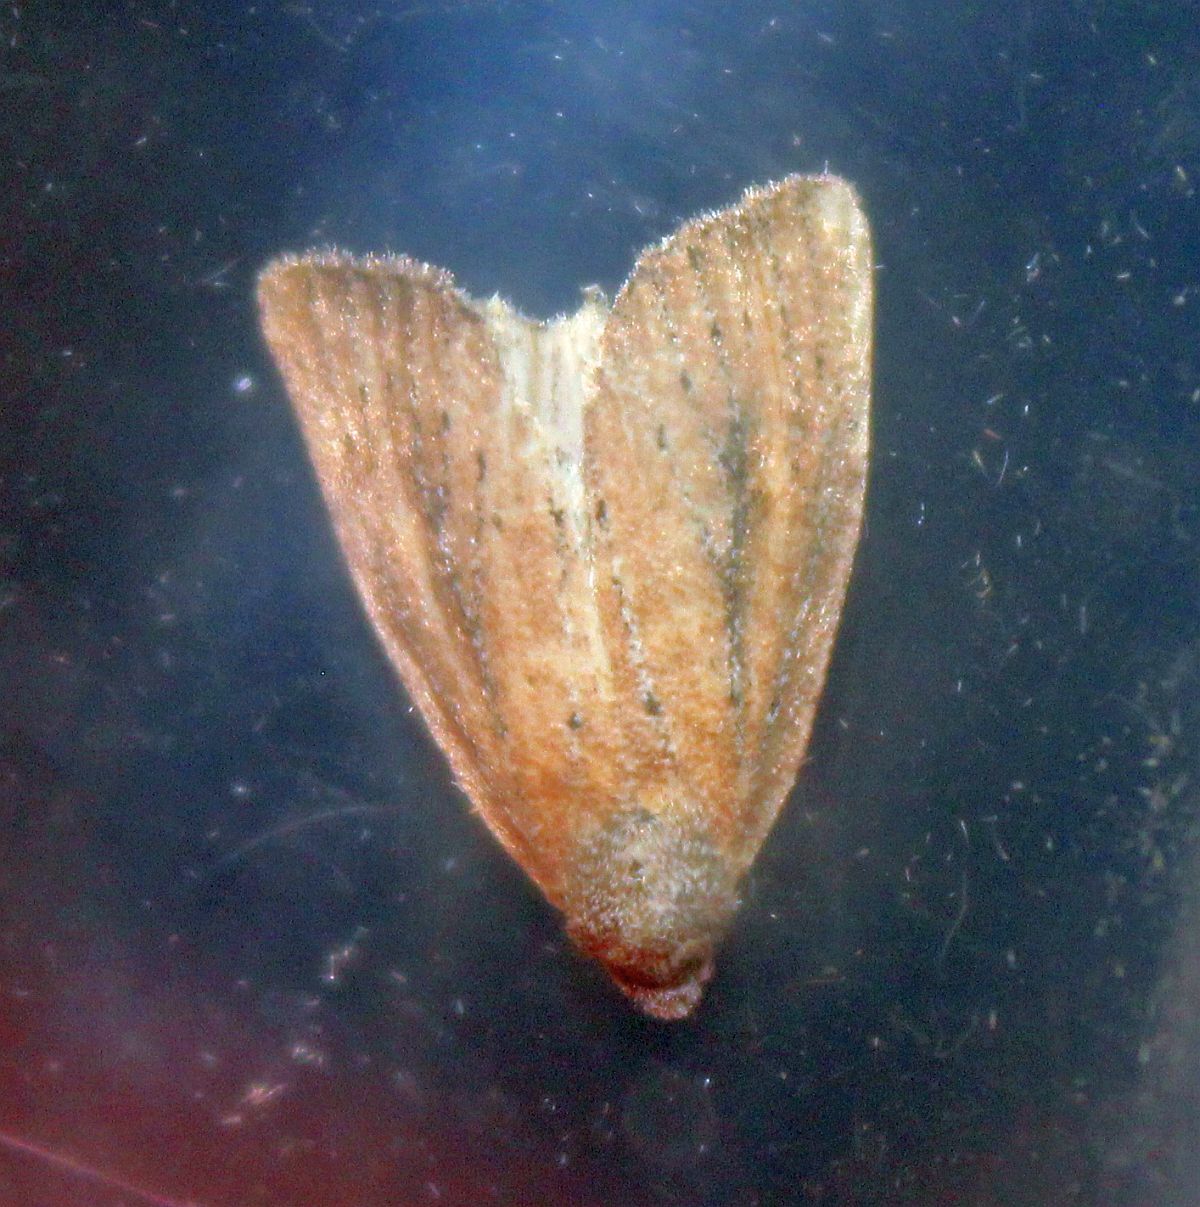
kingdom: Animalia
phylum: Arthropoda
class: Insecta
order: Lepidoptera
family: Noctuidae
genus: Coenobia
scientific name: Coenobia rufa
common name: Small rufous
